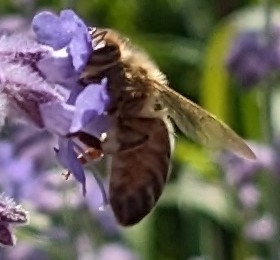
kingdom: Animalia
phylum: Arthropoda
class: Insecta
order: Hymenoptera
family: Apidae
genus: Apis
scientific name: Apis mellifera
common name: Honey bee
